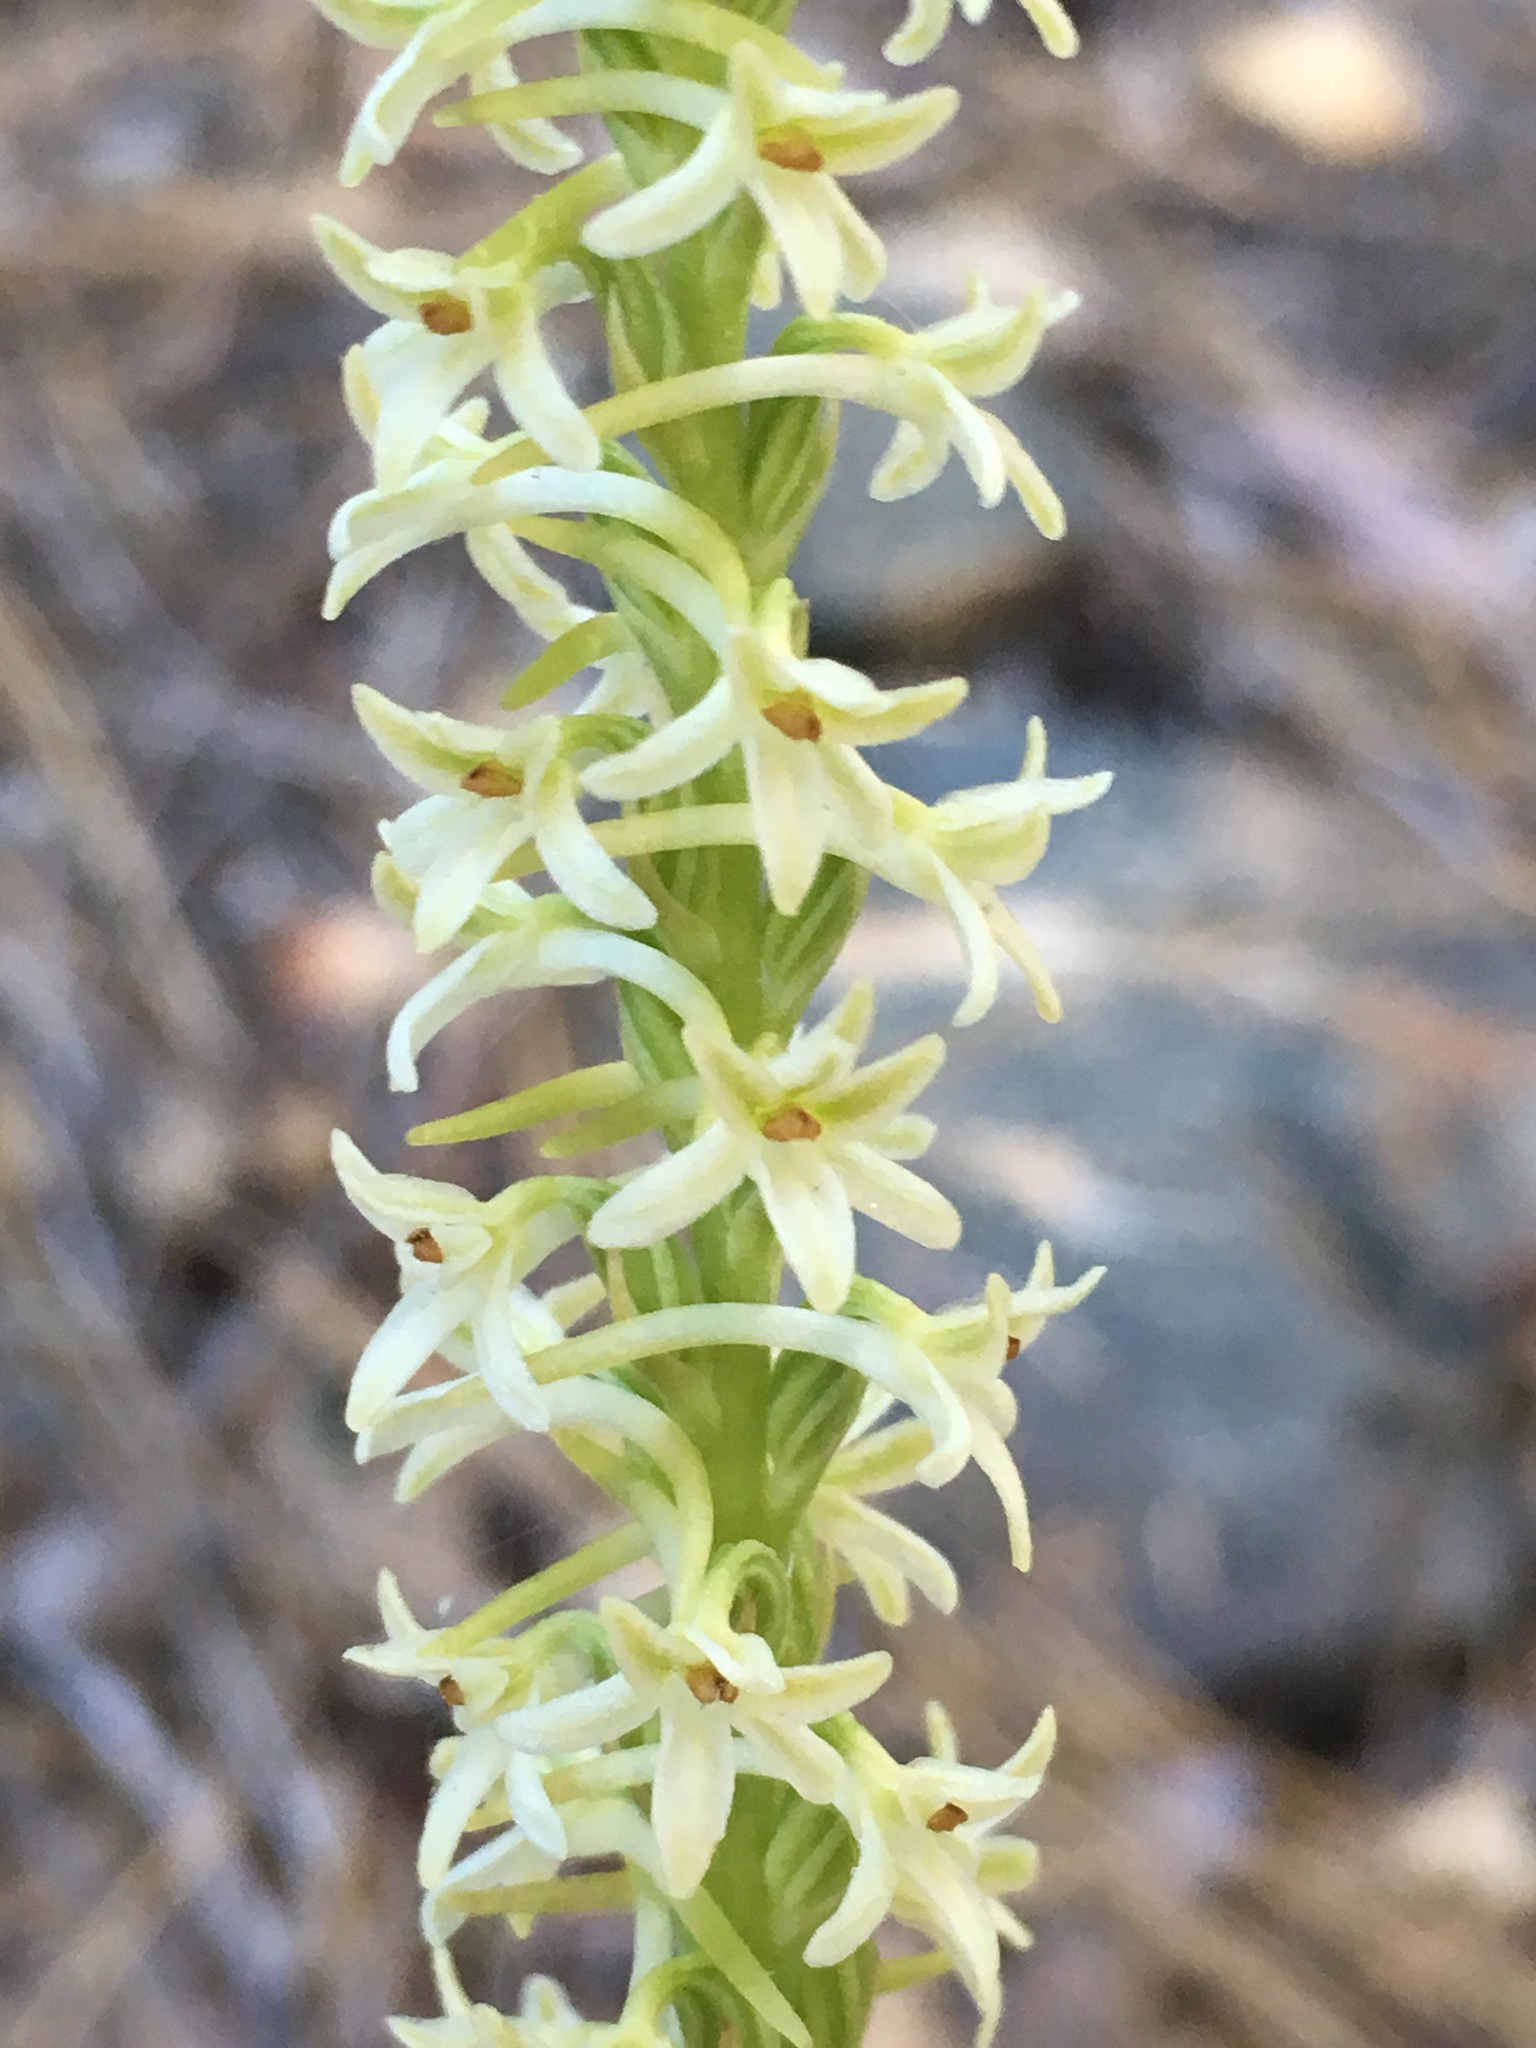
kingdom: Plantae
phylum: Tracheophyta
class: Liliopsida
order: Asparagales
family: Orchidaceae
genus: Platanthera
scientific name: Platanthera transversa
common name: Royal rein orchid
